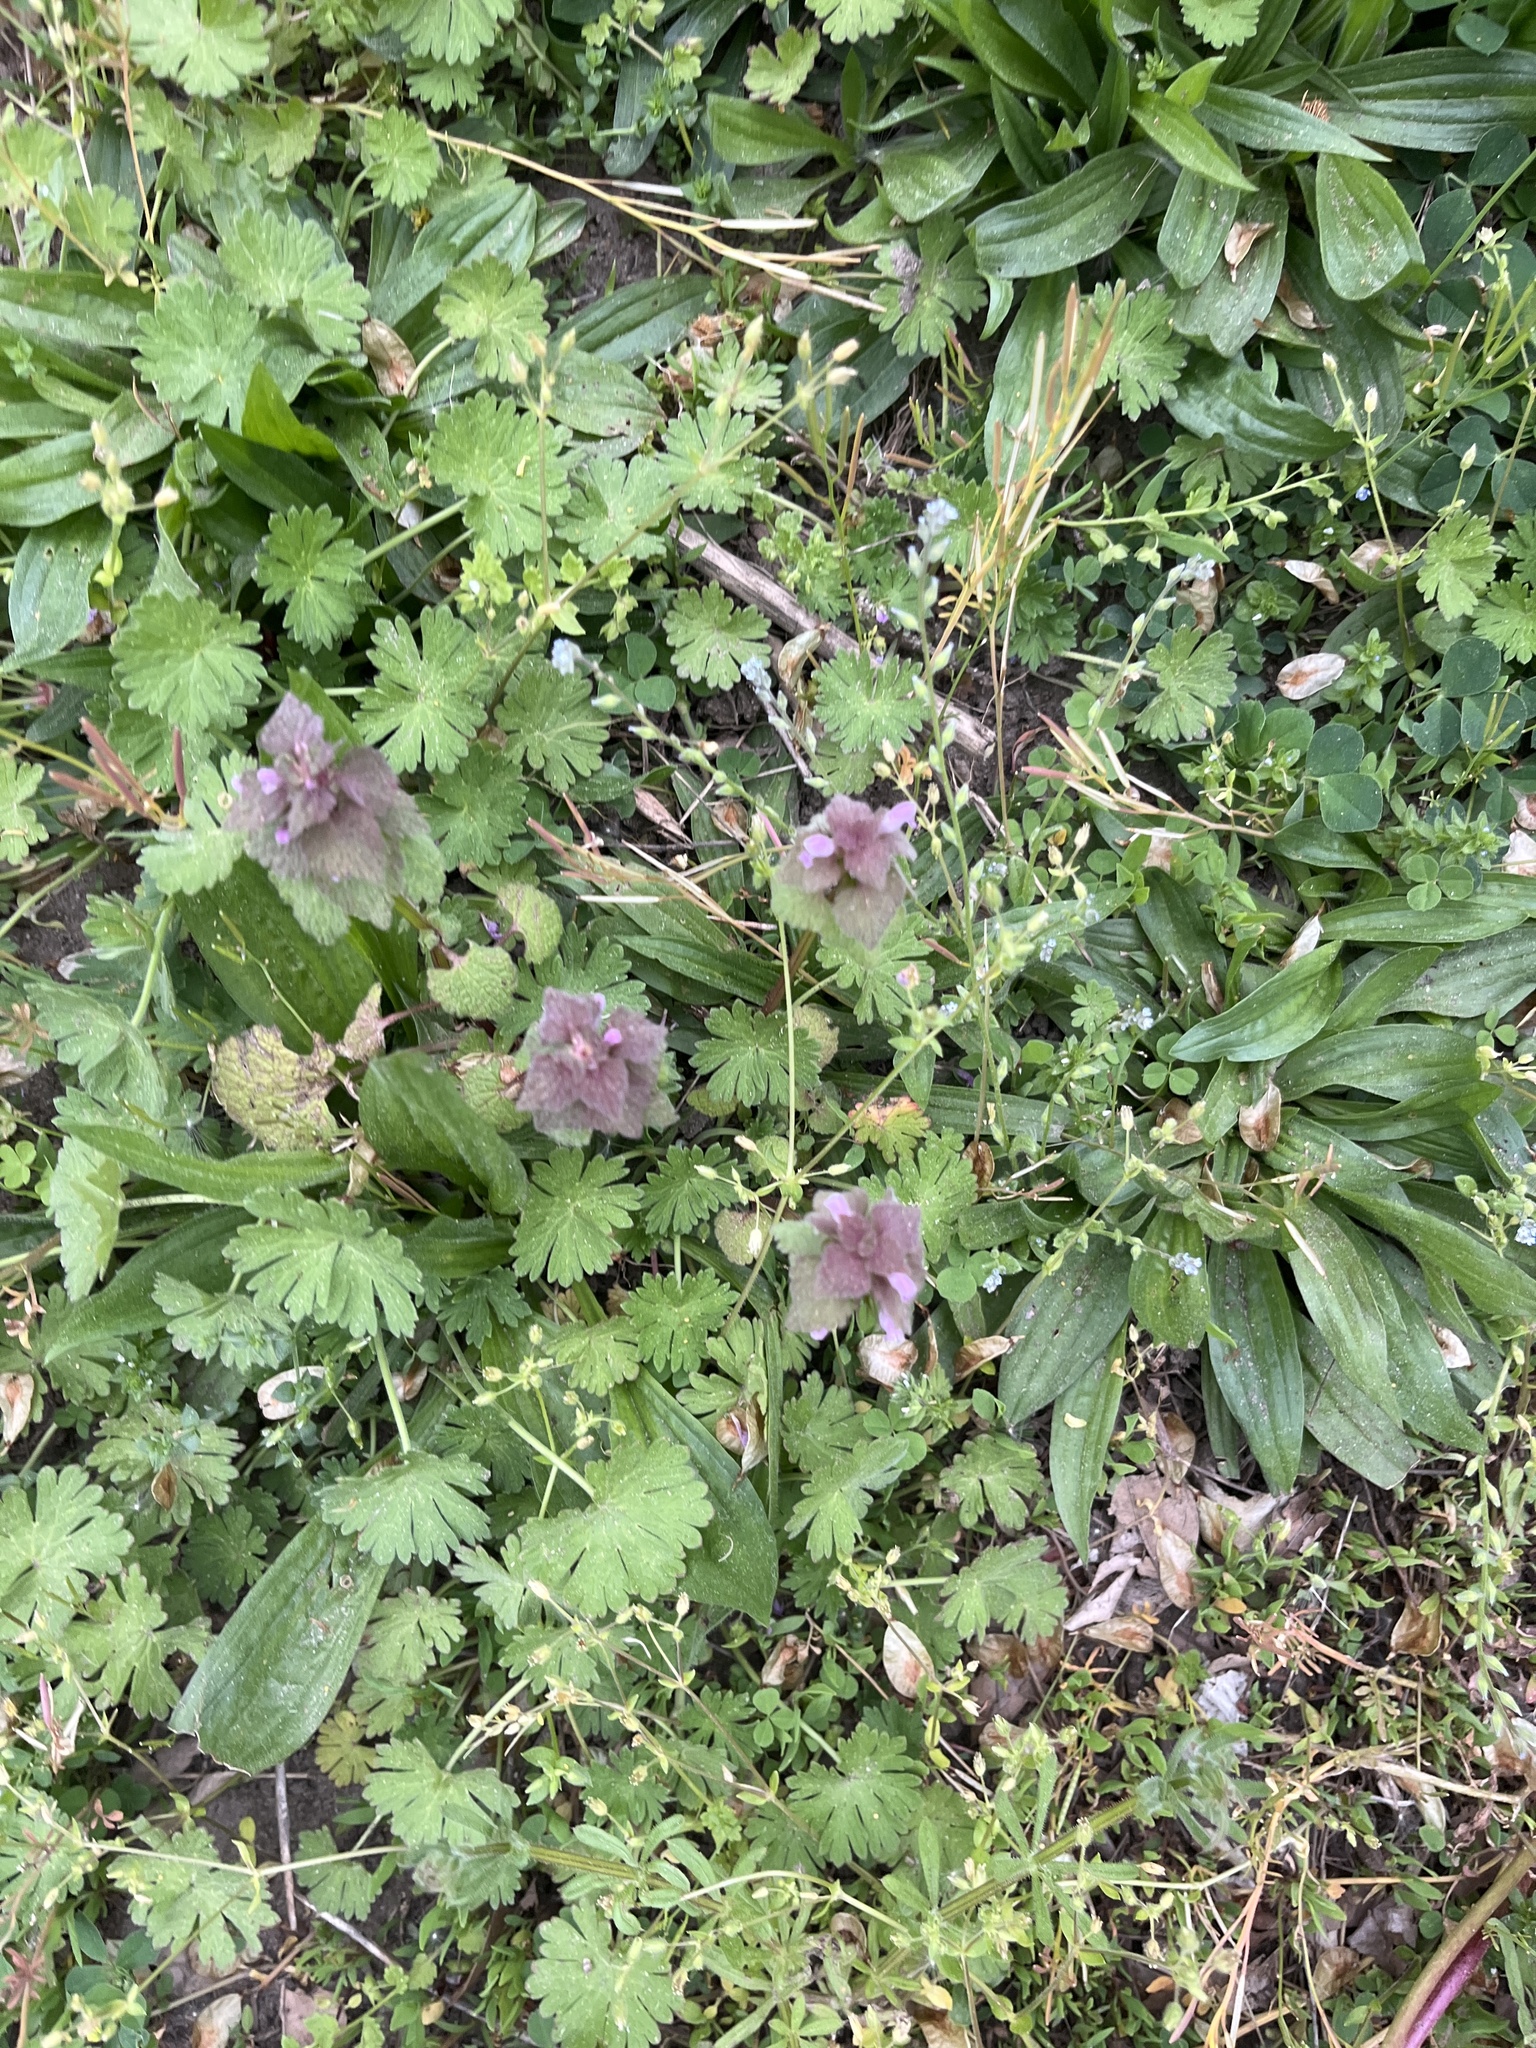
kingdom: Plantae
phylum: Tracheophyta
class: Magnoliopsida
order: Lamiales
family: Lamiaceae
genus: Lamium
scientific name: Lamium purpureum
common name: Red dead-nettle
